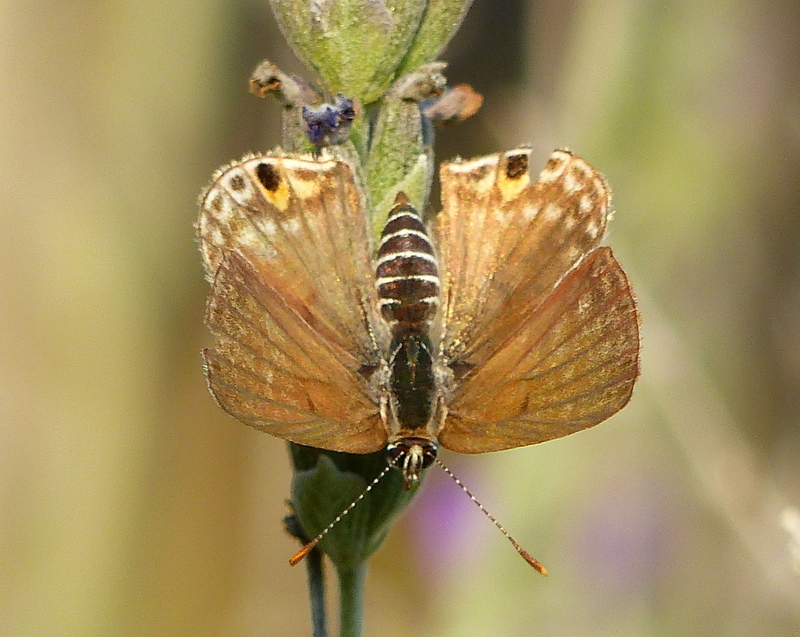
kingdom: Animalia
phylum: Arthropoda
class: Insecta
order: Lepidoptera
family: Lycaenidae
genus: Anthene
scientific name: Anthene amarah
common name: Black-striped hairtail
